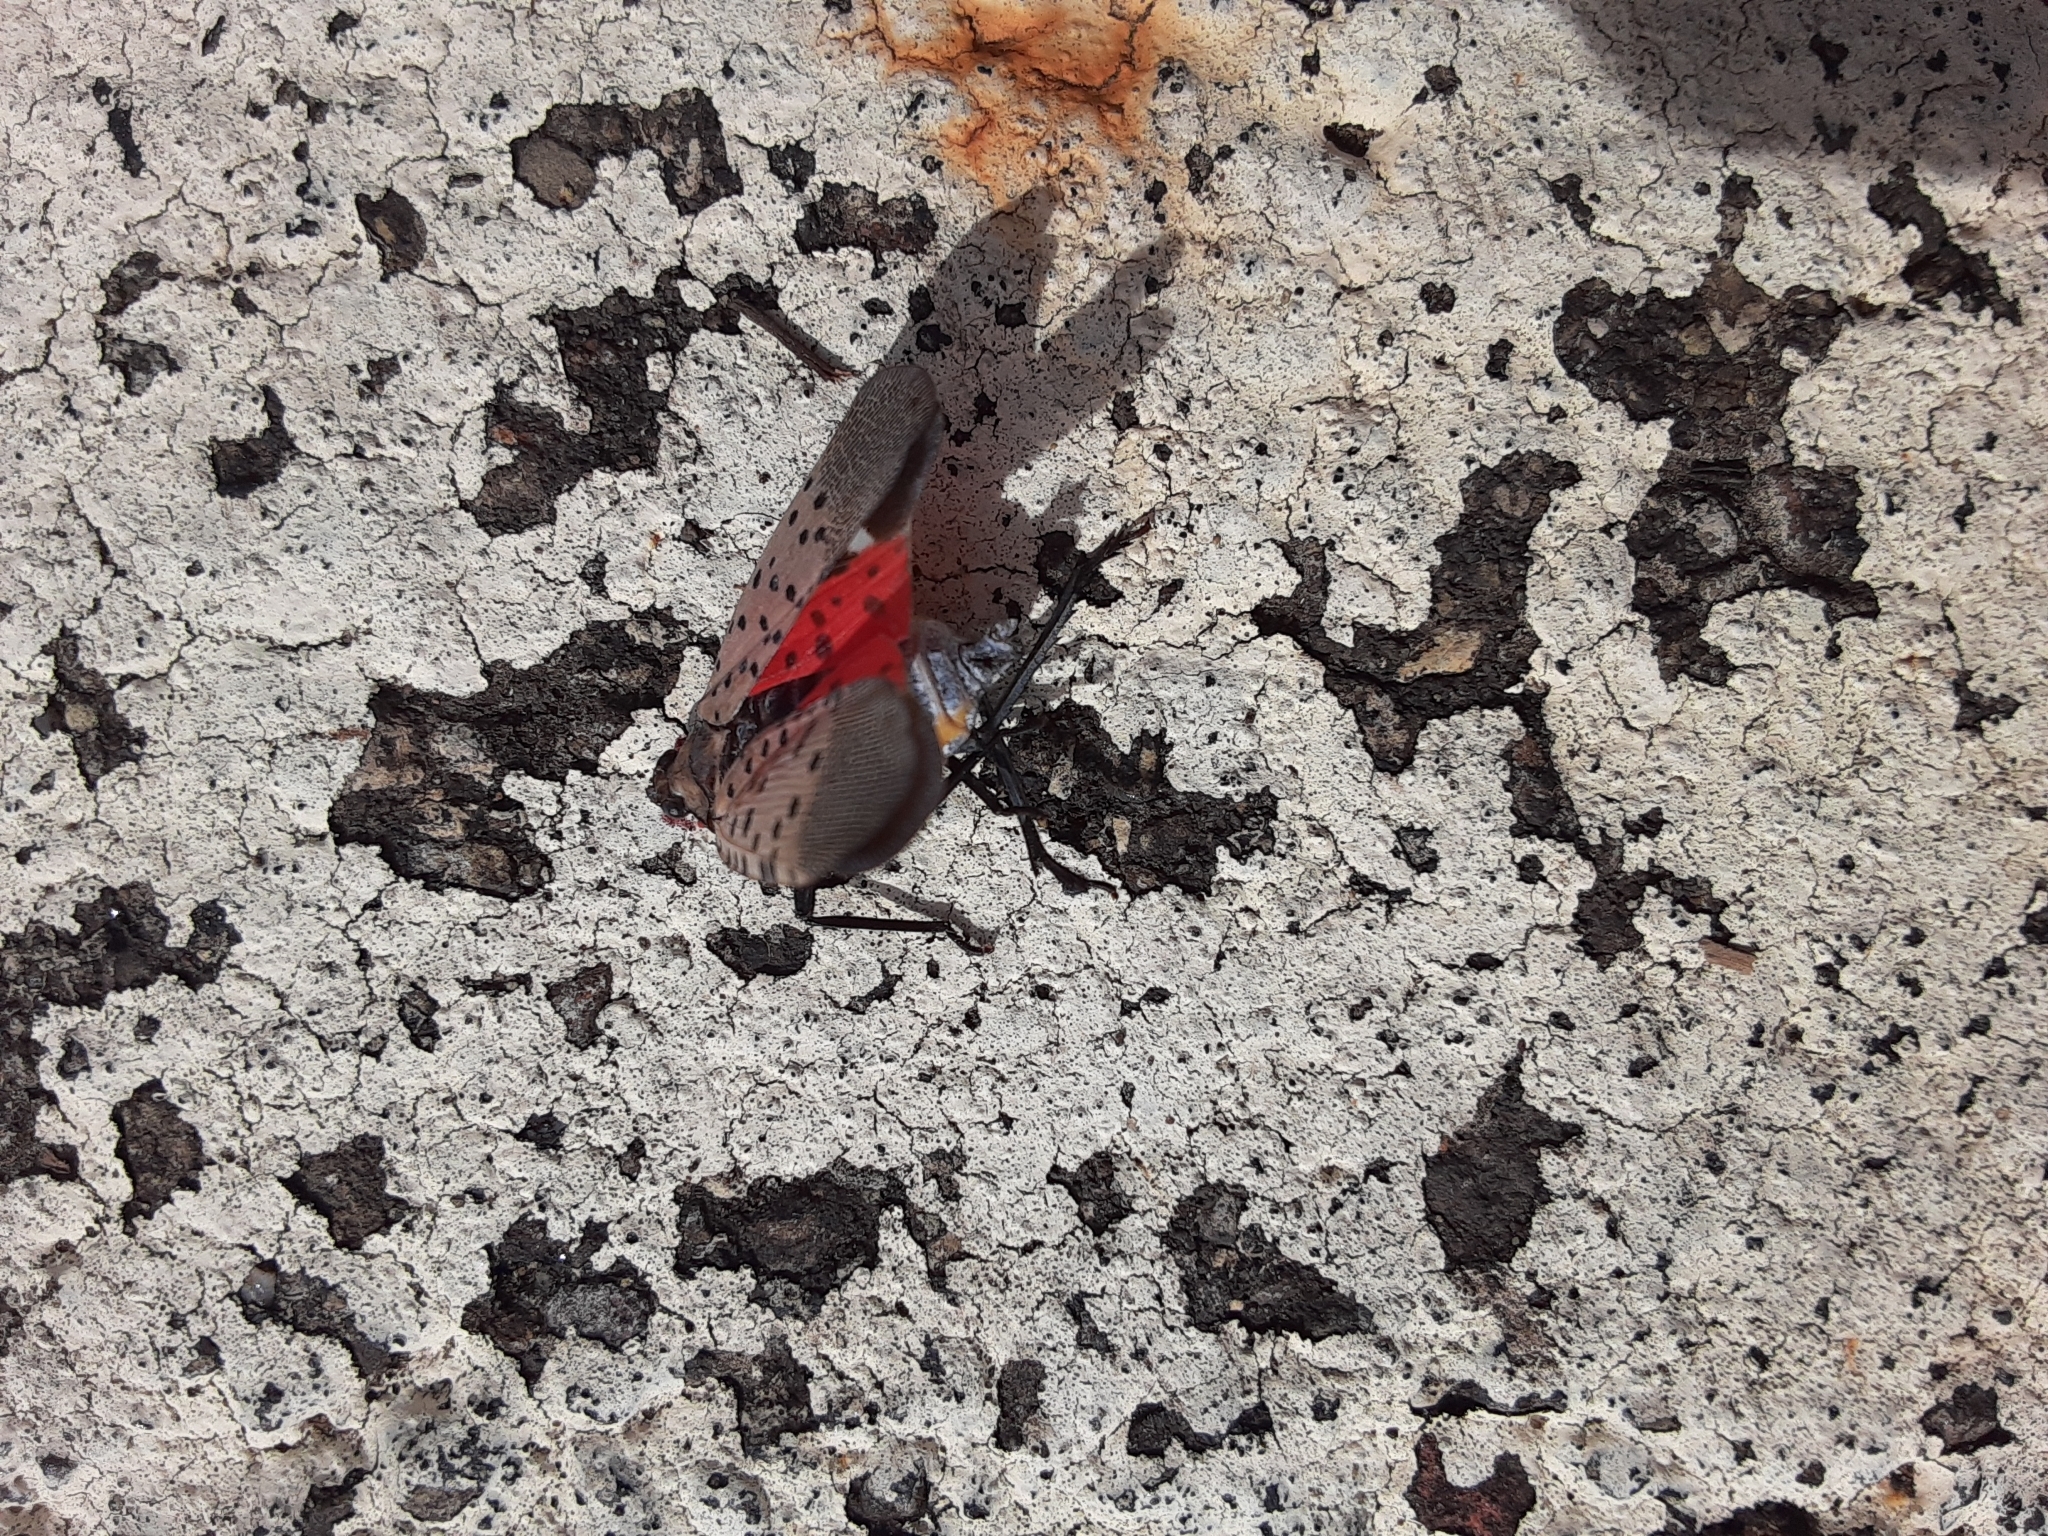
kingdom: Animalia
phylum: Arthropoda
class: Insecta
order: Hemiptera
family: Fulgoridae
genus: Lycorma
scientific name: Lycorma delicatula
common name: Spotted lanternfly
